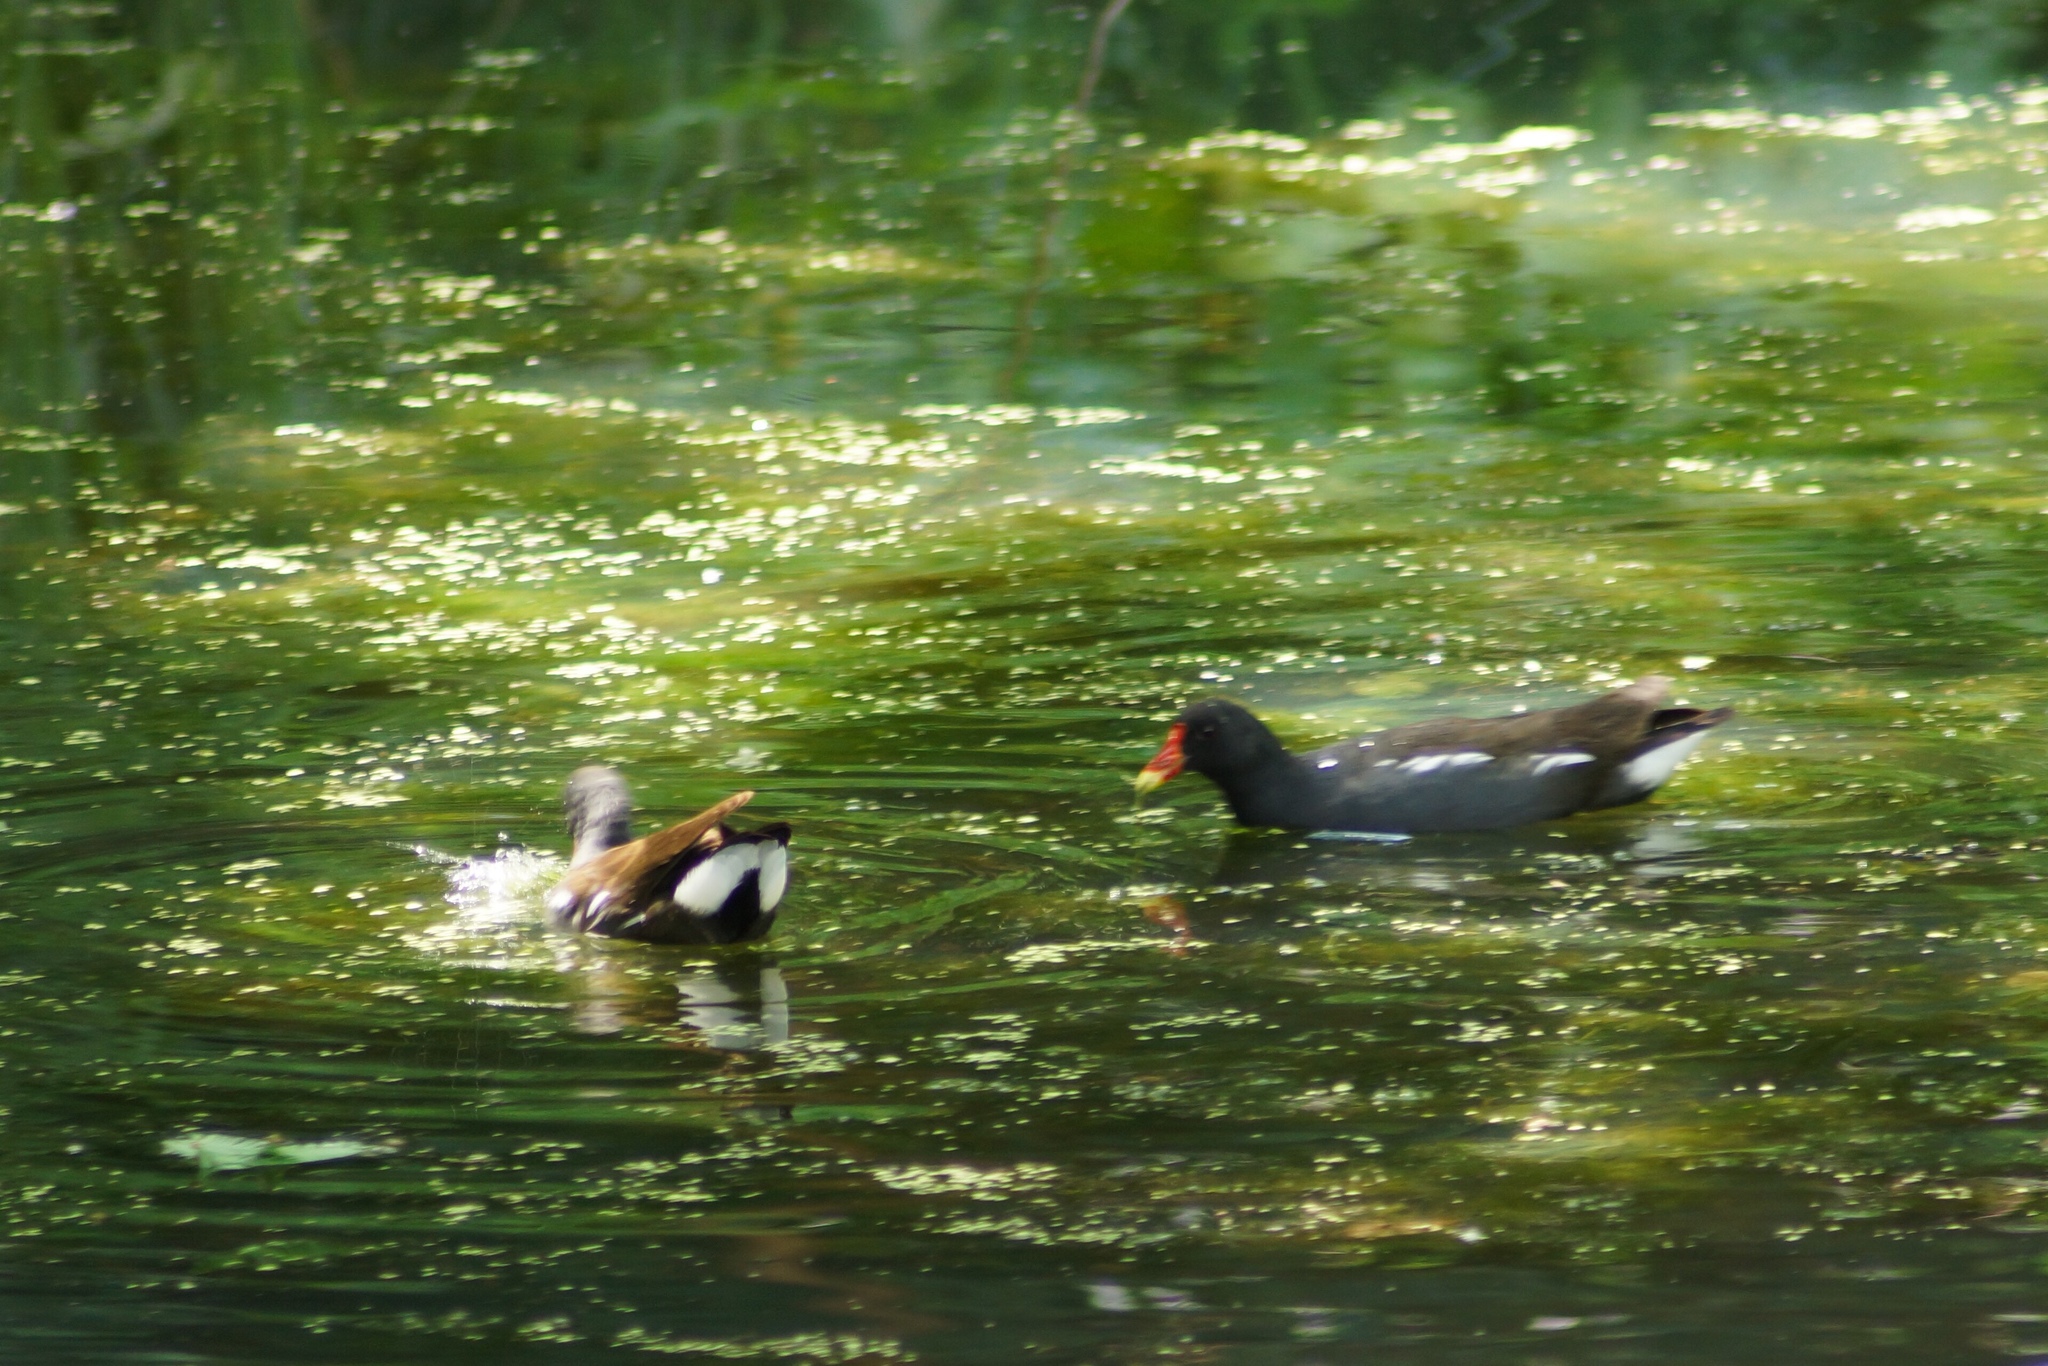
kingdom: Animalia
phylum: Chordata
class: Aves
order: Gruiformes
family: Rallidae
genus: Gallinula
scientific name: Gallinula chloropus
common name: Common moorhen
